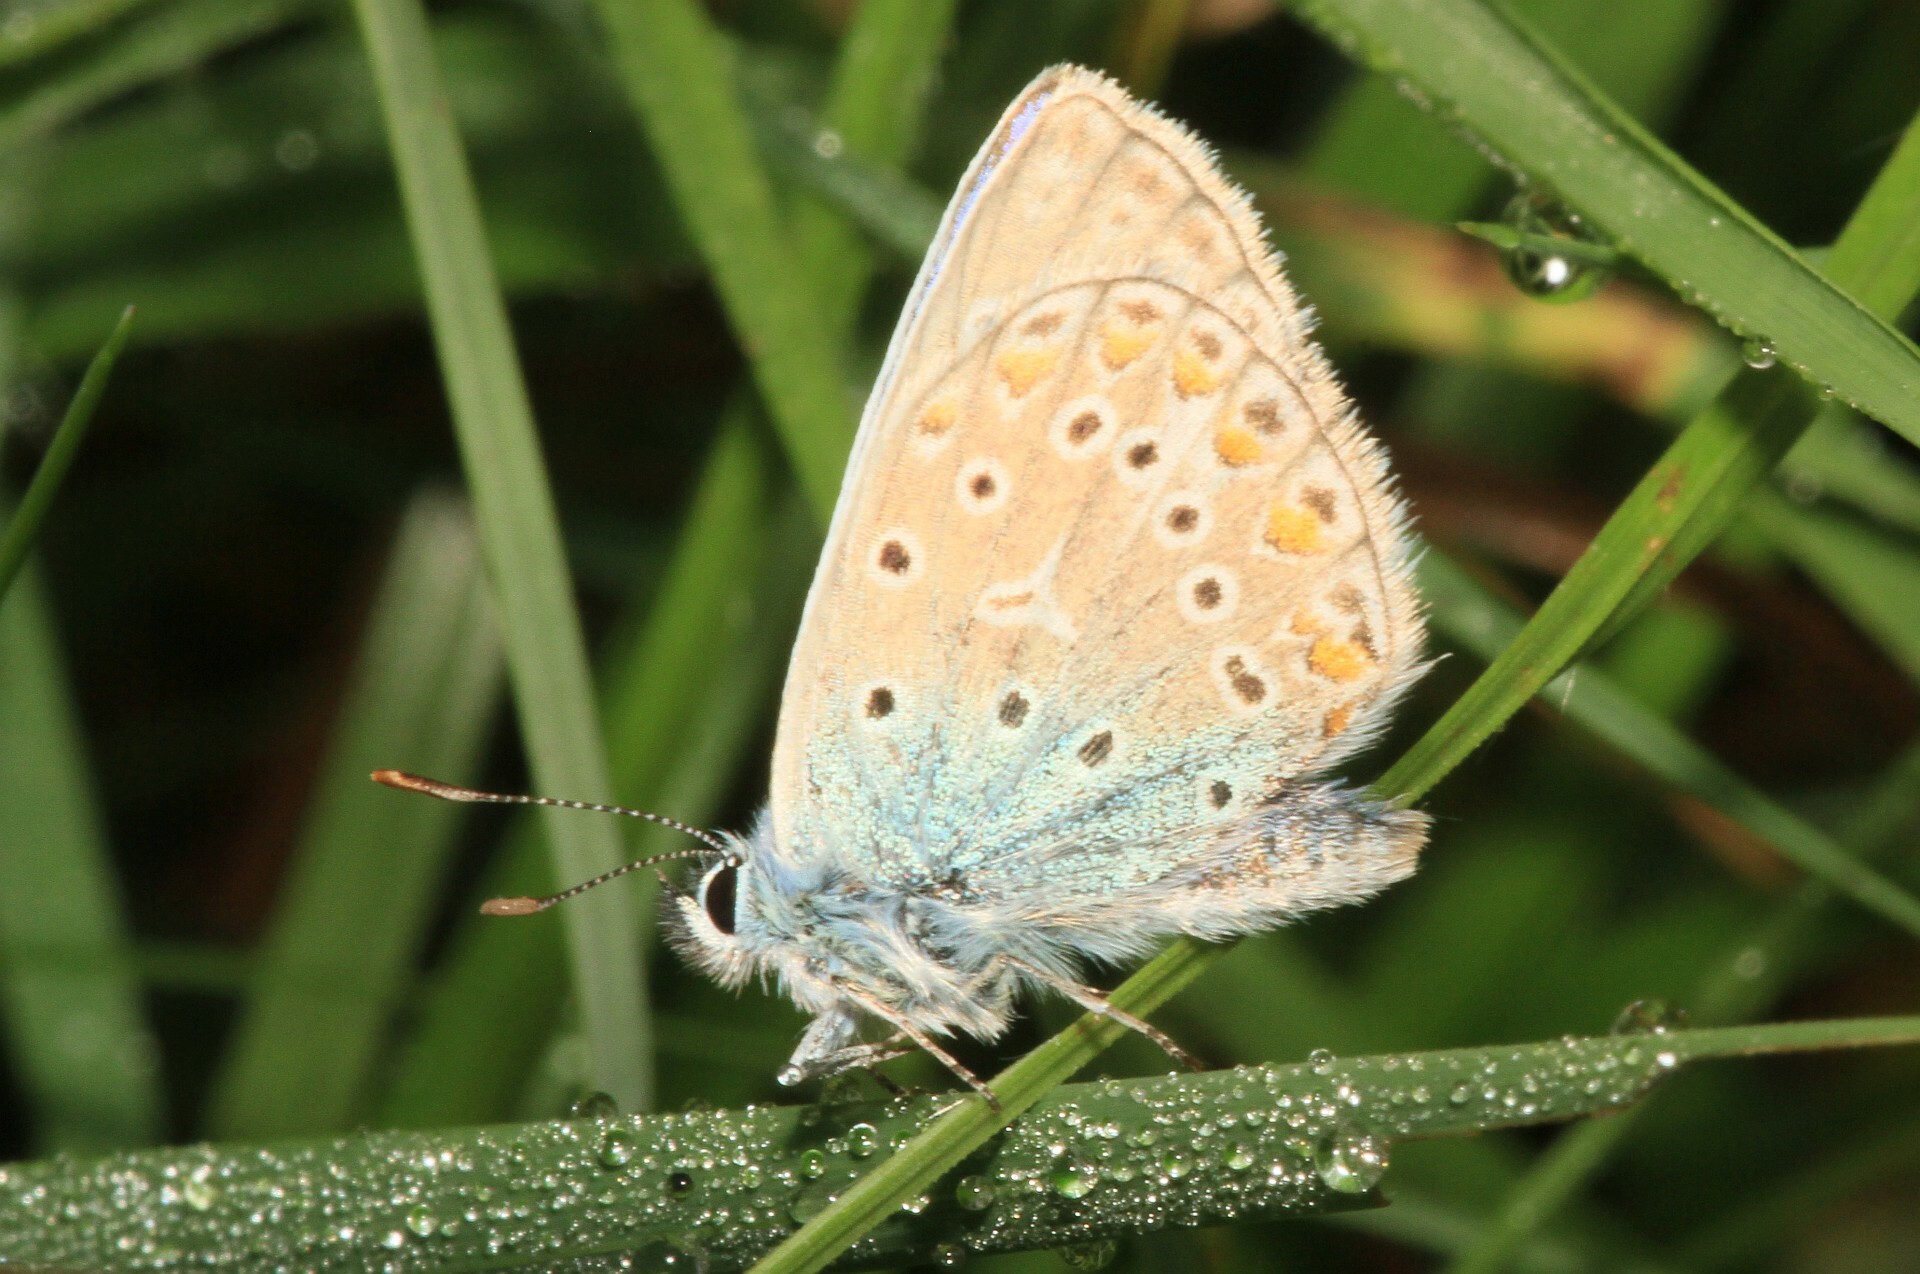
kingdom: Animalia
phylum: Arthropoda
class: Insecta
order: Lepidoptera
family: Lycaenidae
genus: Polyommatus
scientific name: Polyommatus icarus
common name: Common blue
